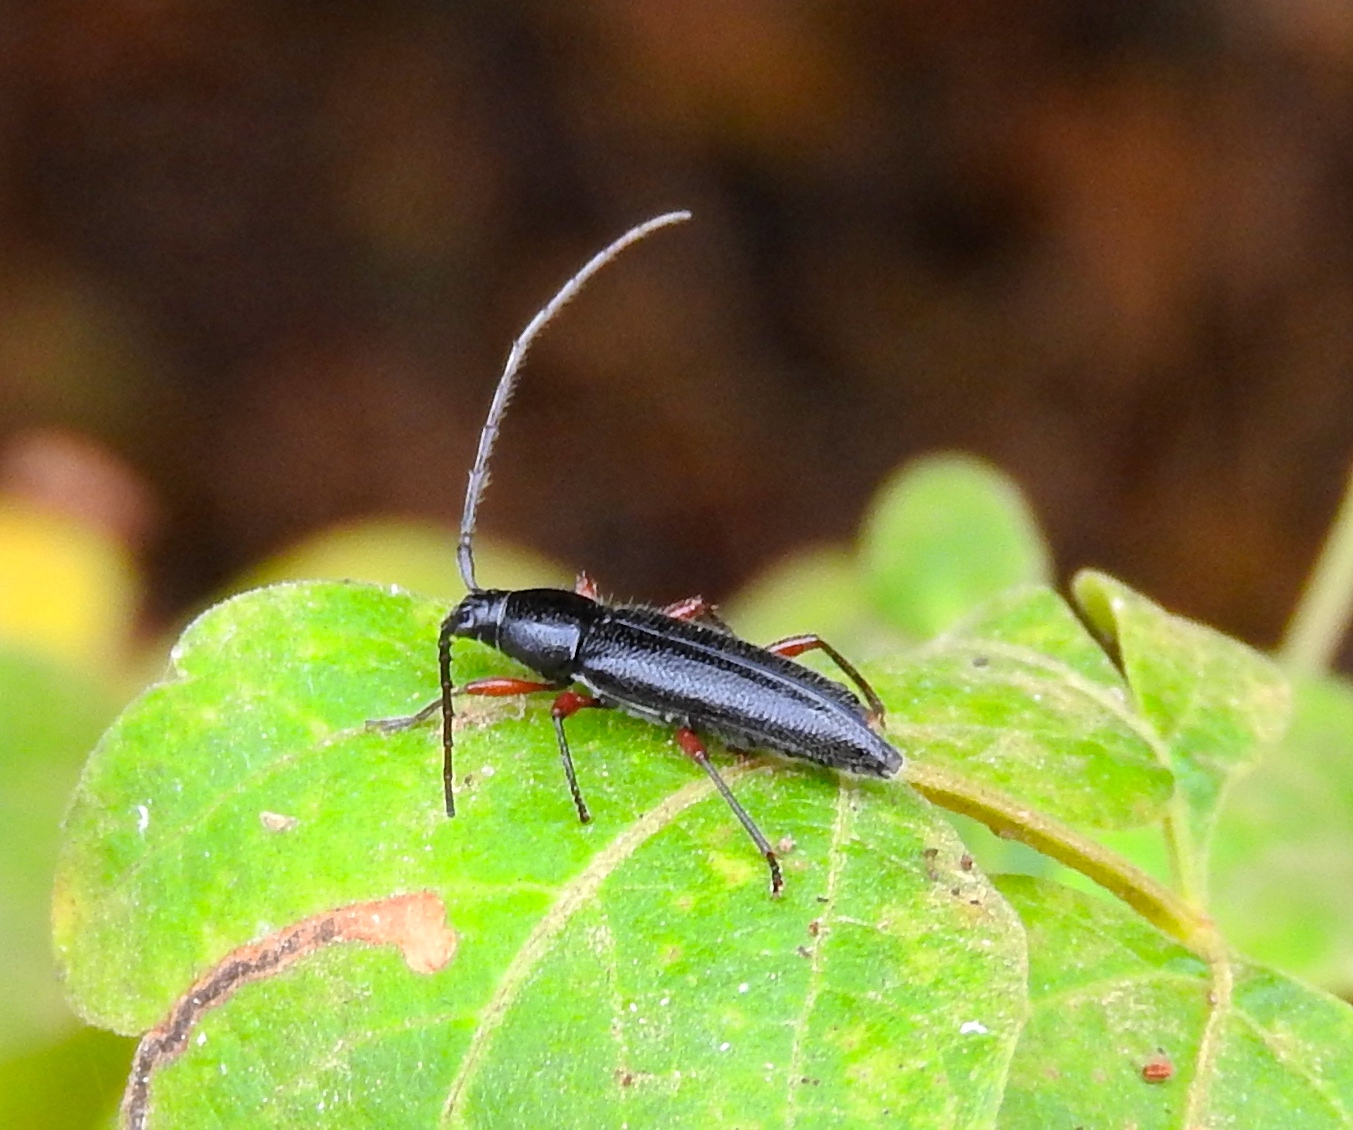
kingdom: Animalia
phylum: Arthropoda
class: Insecta
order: Coleoptera
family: Cerambycidae
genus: Stenosphenus
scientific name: Stenosphenus
